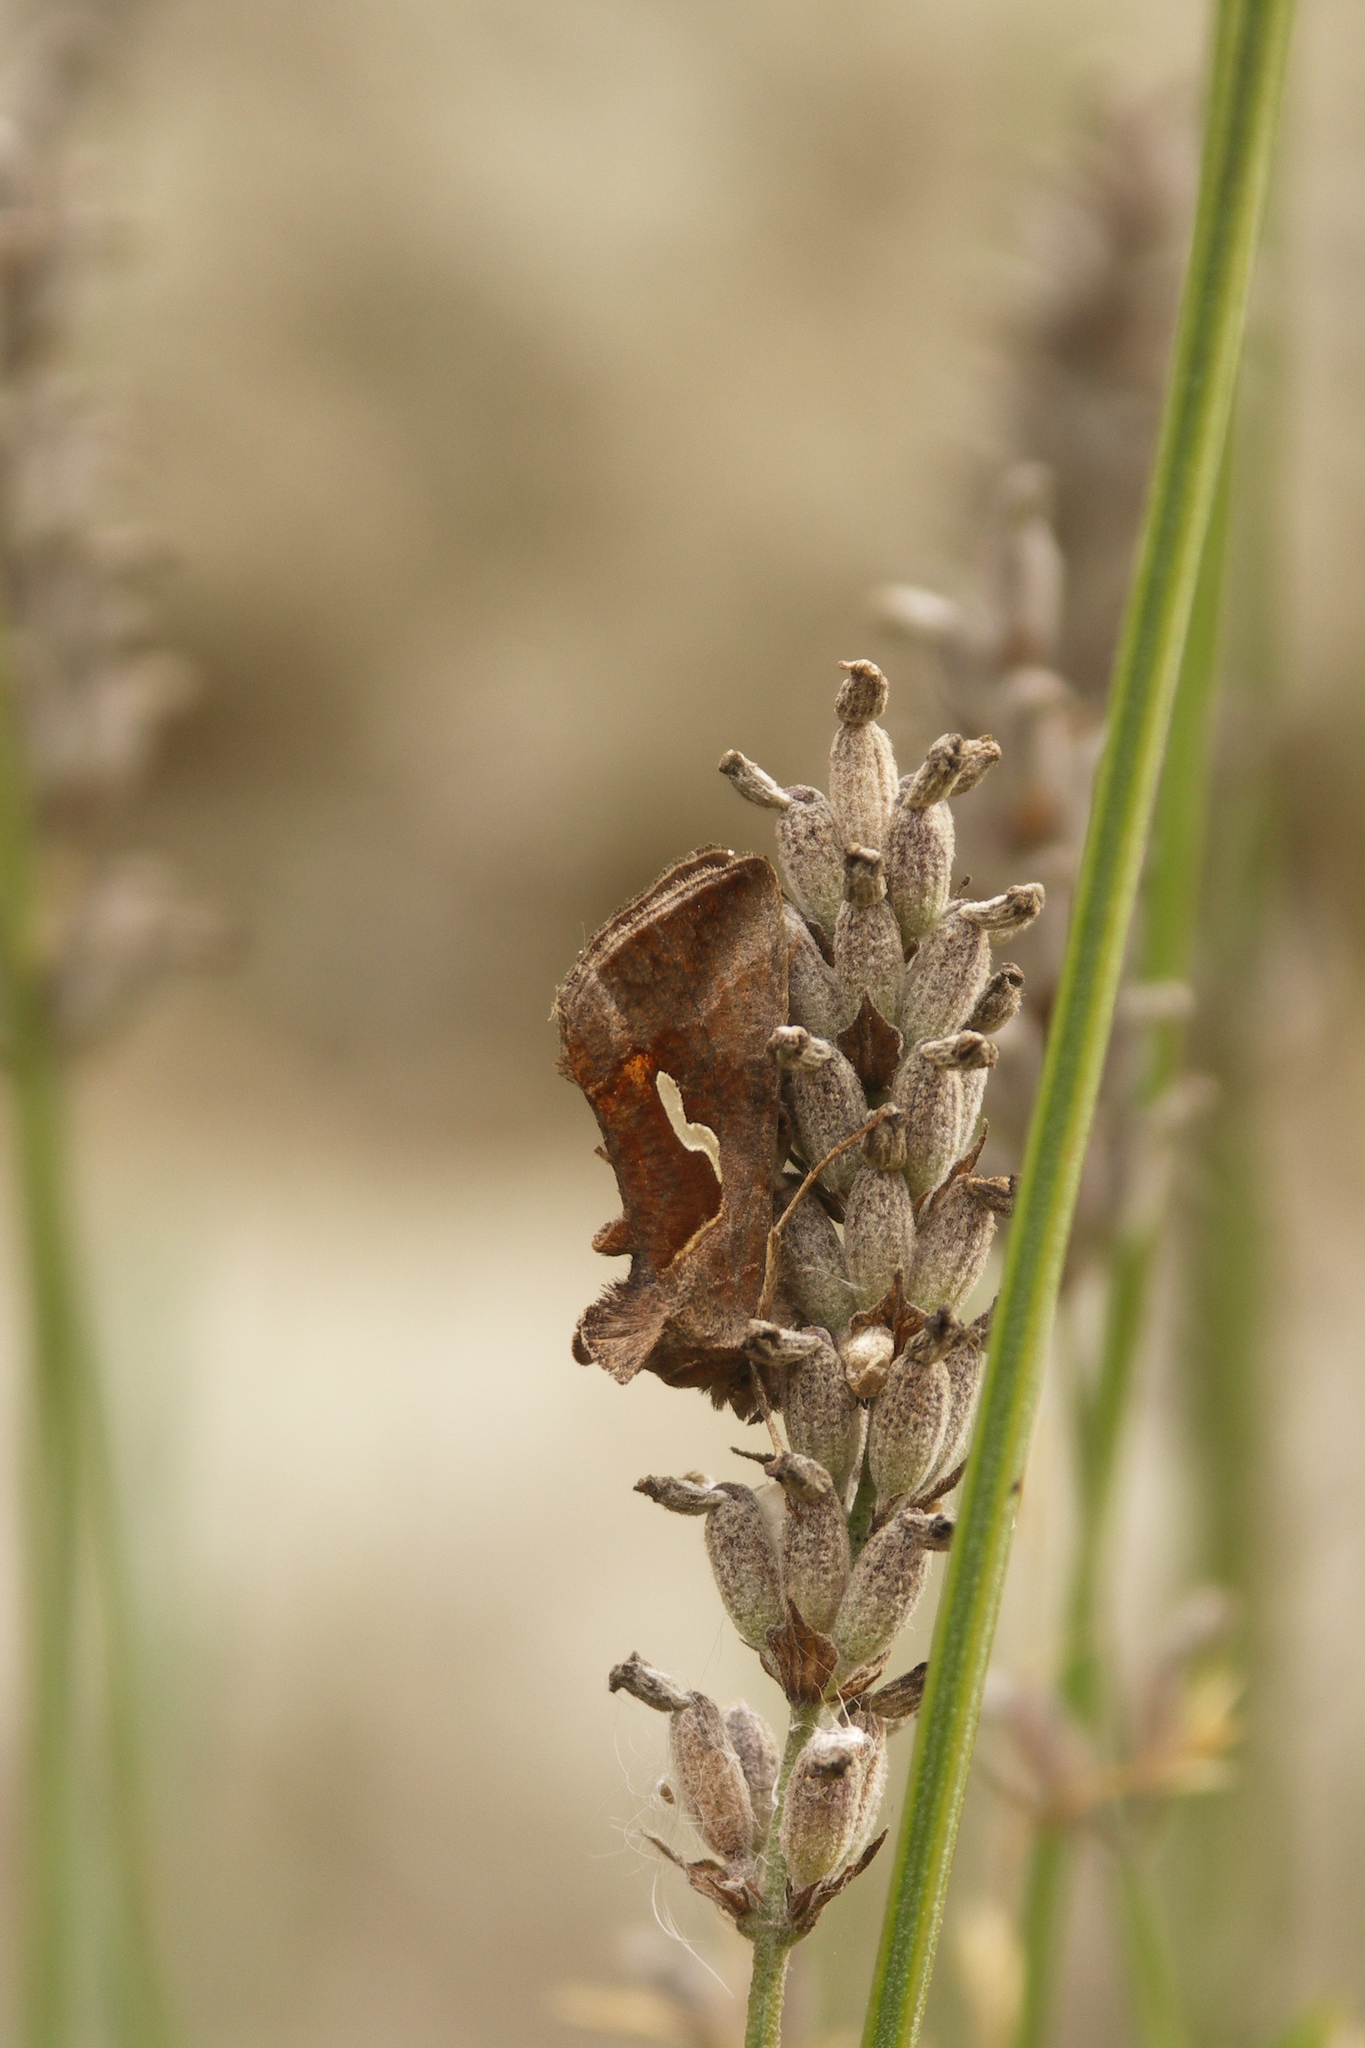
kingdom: Animalia
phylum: Arthropoda
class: Insecta
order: Lepidoptera
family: Noctuidae
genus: Macdunnoughia
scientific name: Macdunnoughia confusa
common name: Dewick's plusia
